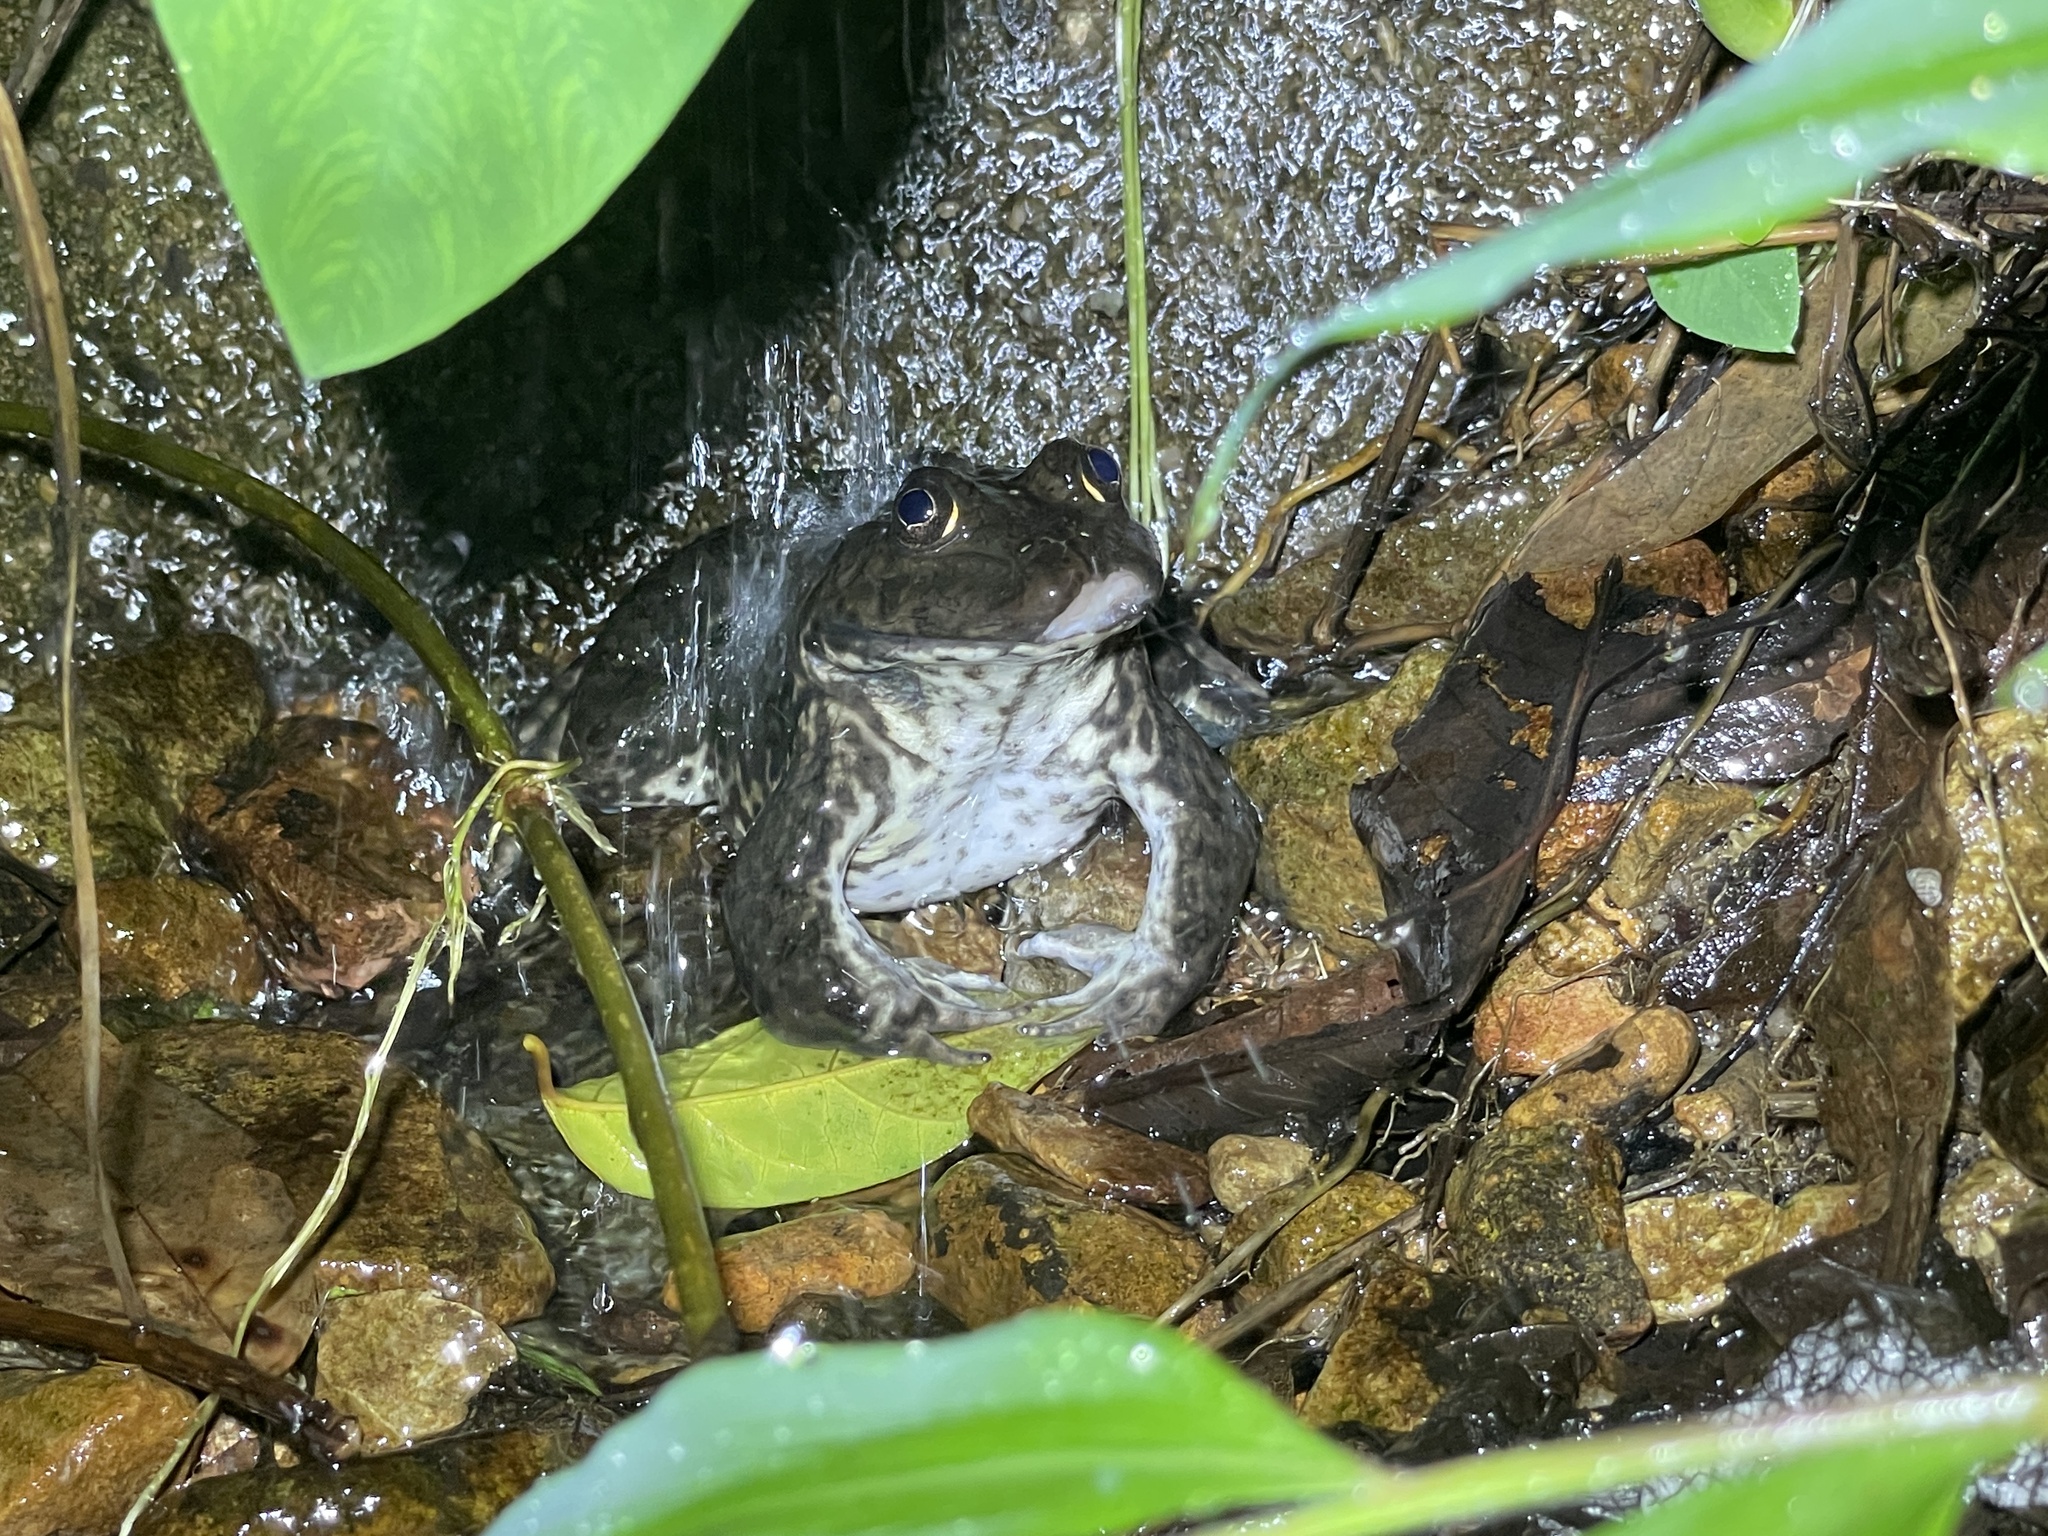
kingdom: Animalia
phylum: Chordata
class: Amphibia
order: Anura
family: Dicroglossidae
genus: Hoplobatrachus
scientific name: Hoplobatrachus rugulosus
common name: Chinese edible frog
